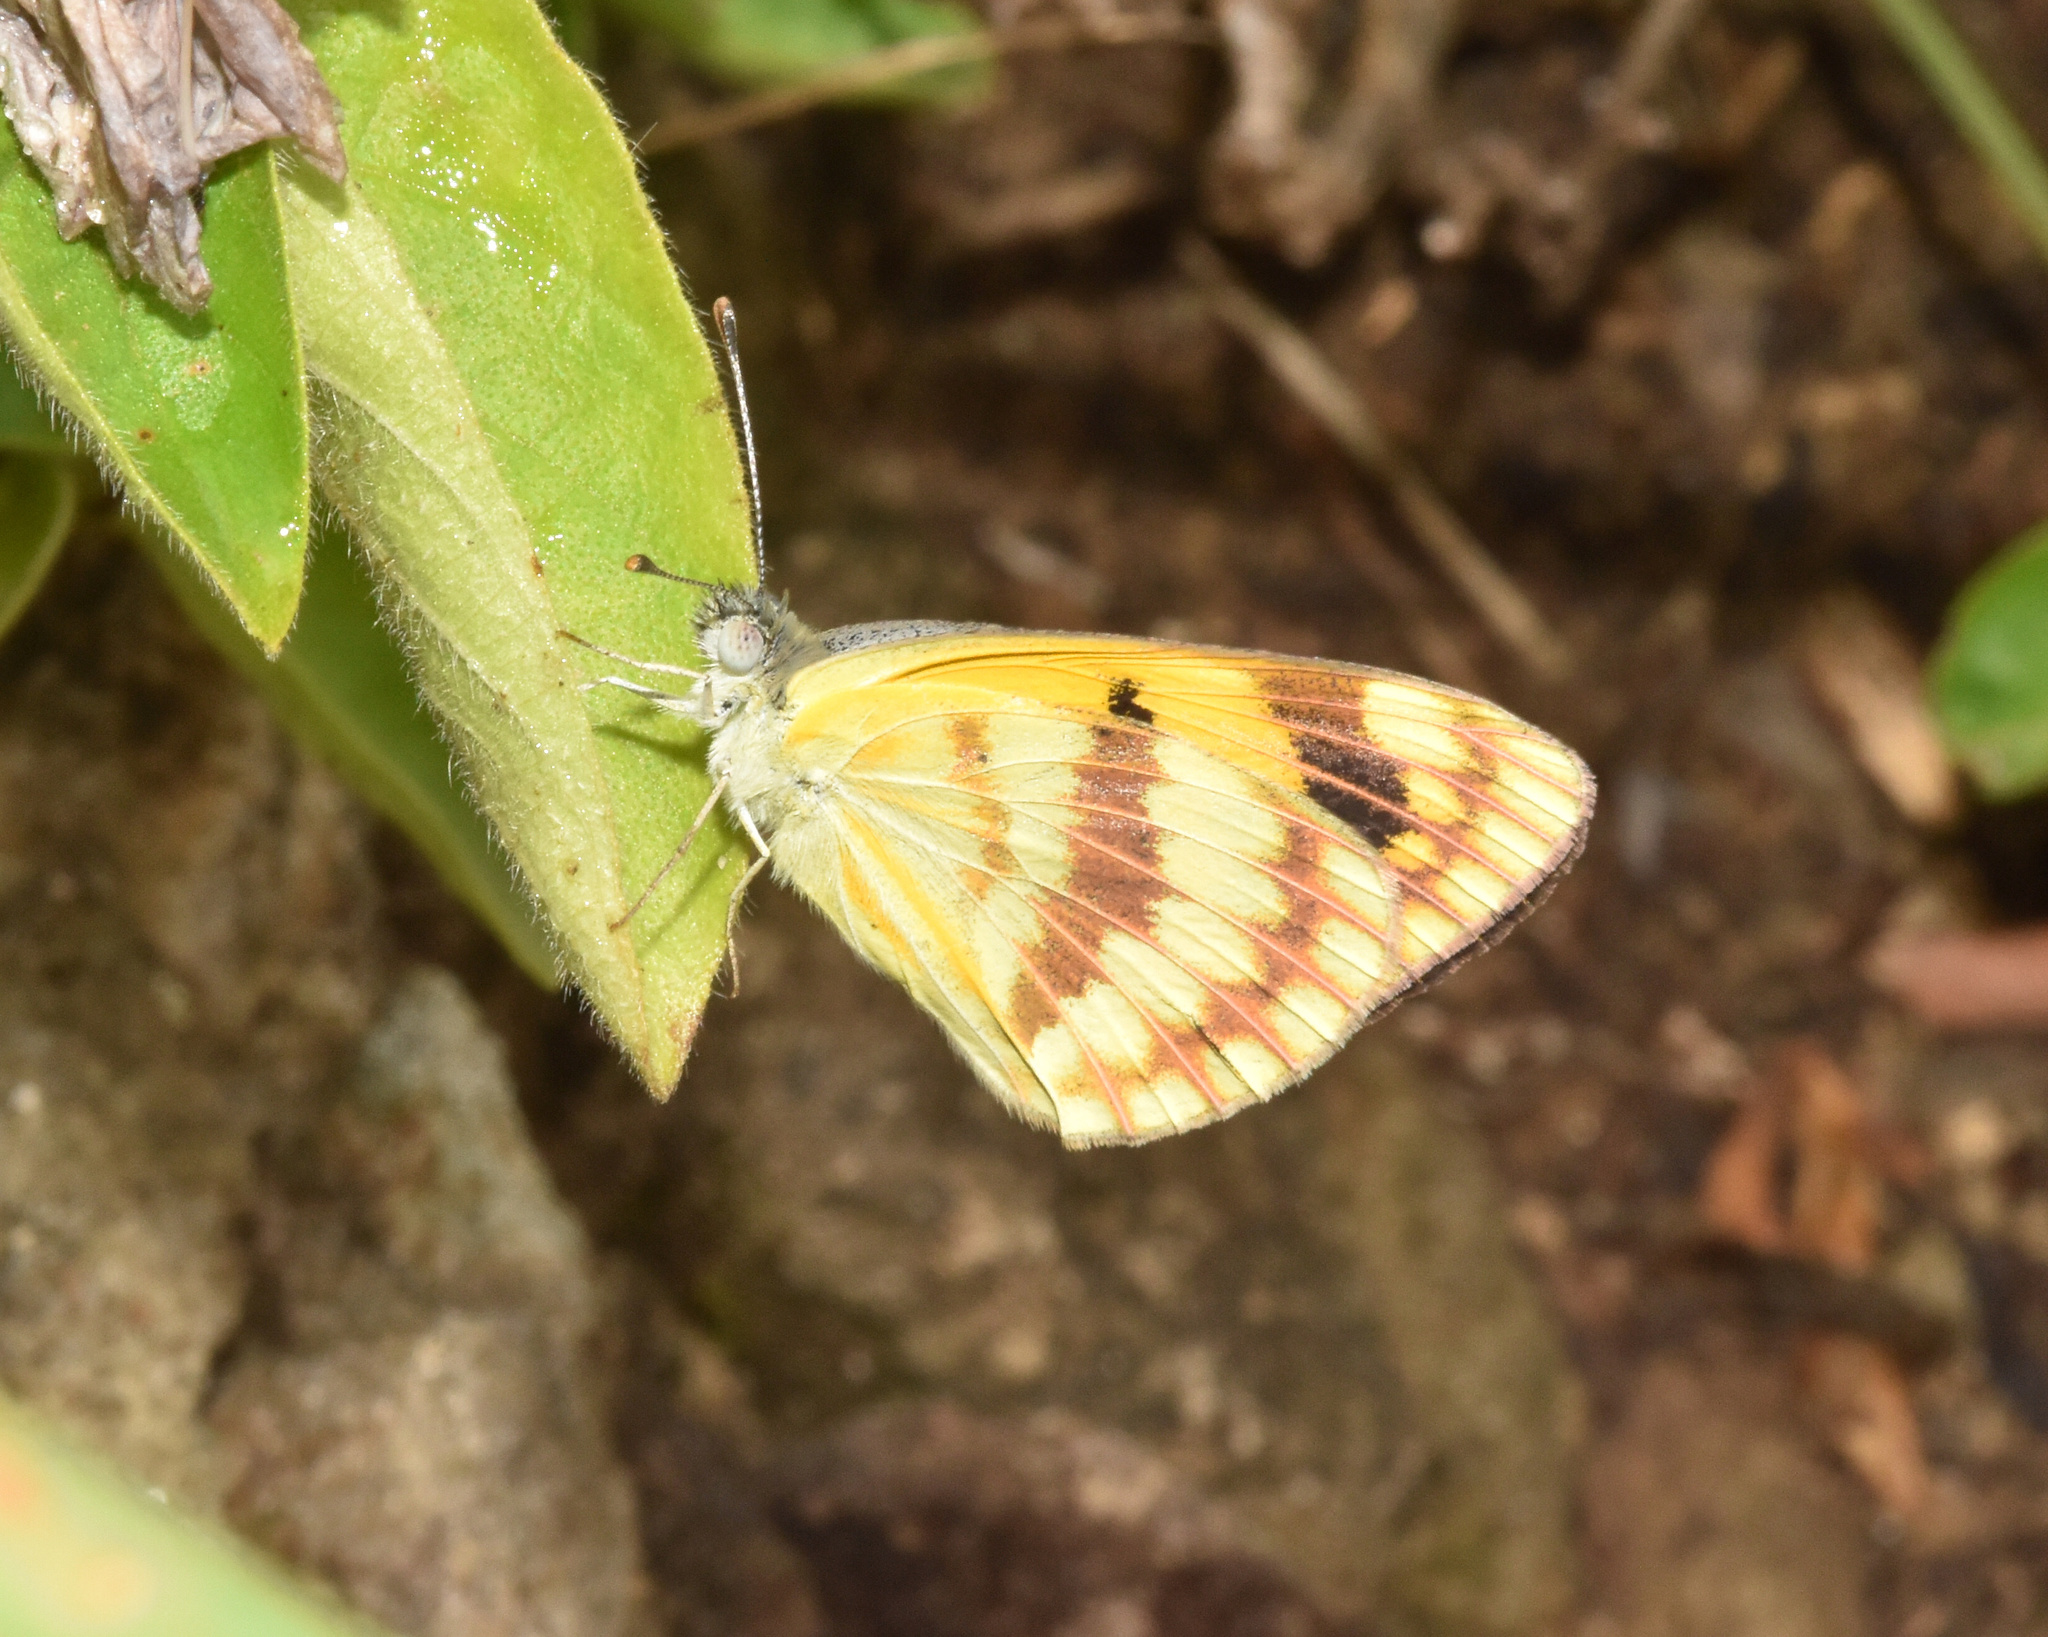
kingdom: Animalia
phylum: Arthropoda
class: Insecta
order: Lepidoptera
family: Pieridae
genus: Colotis
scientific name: Colotis vesta
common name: Veined golden arab
